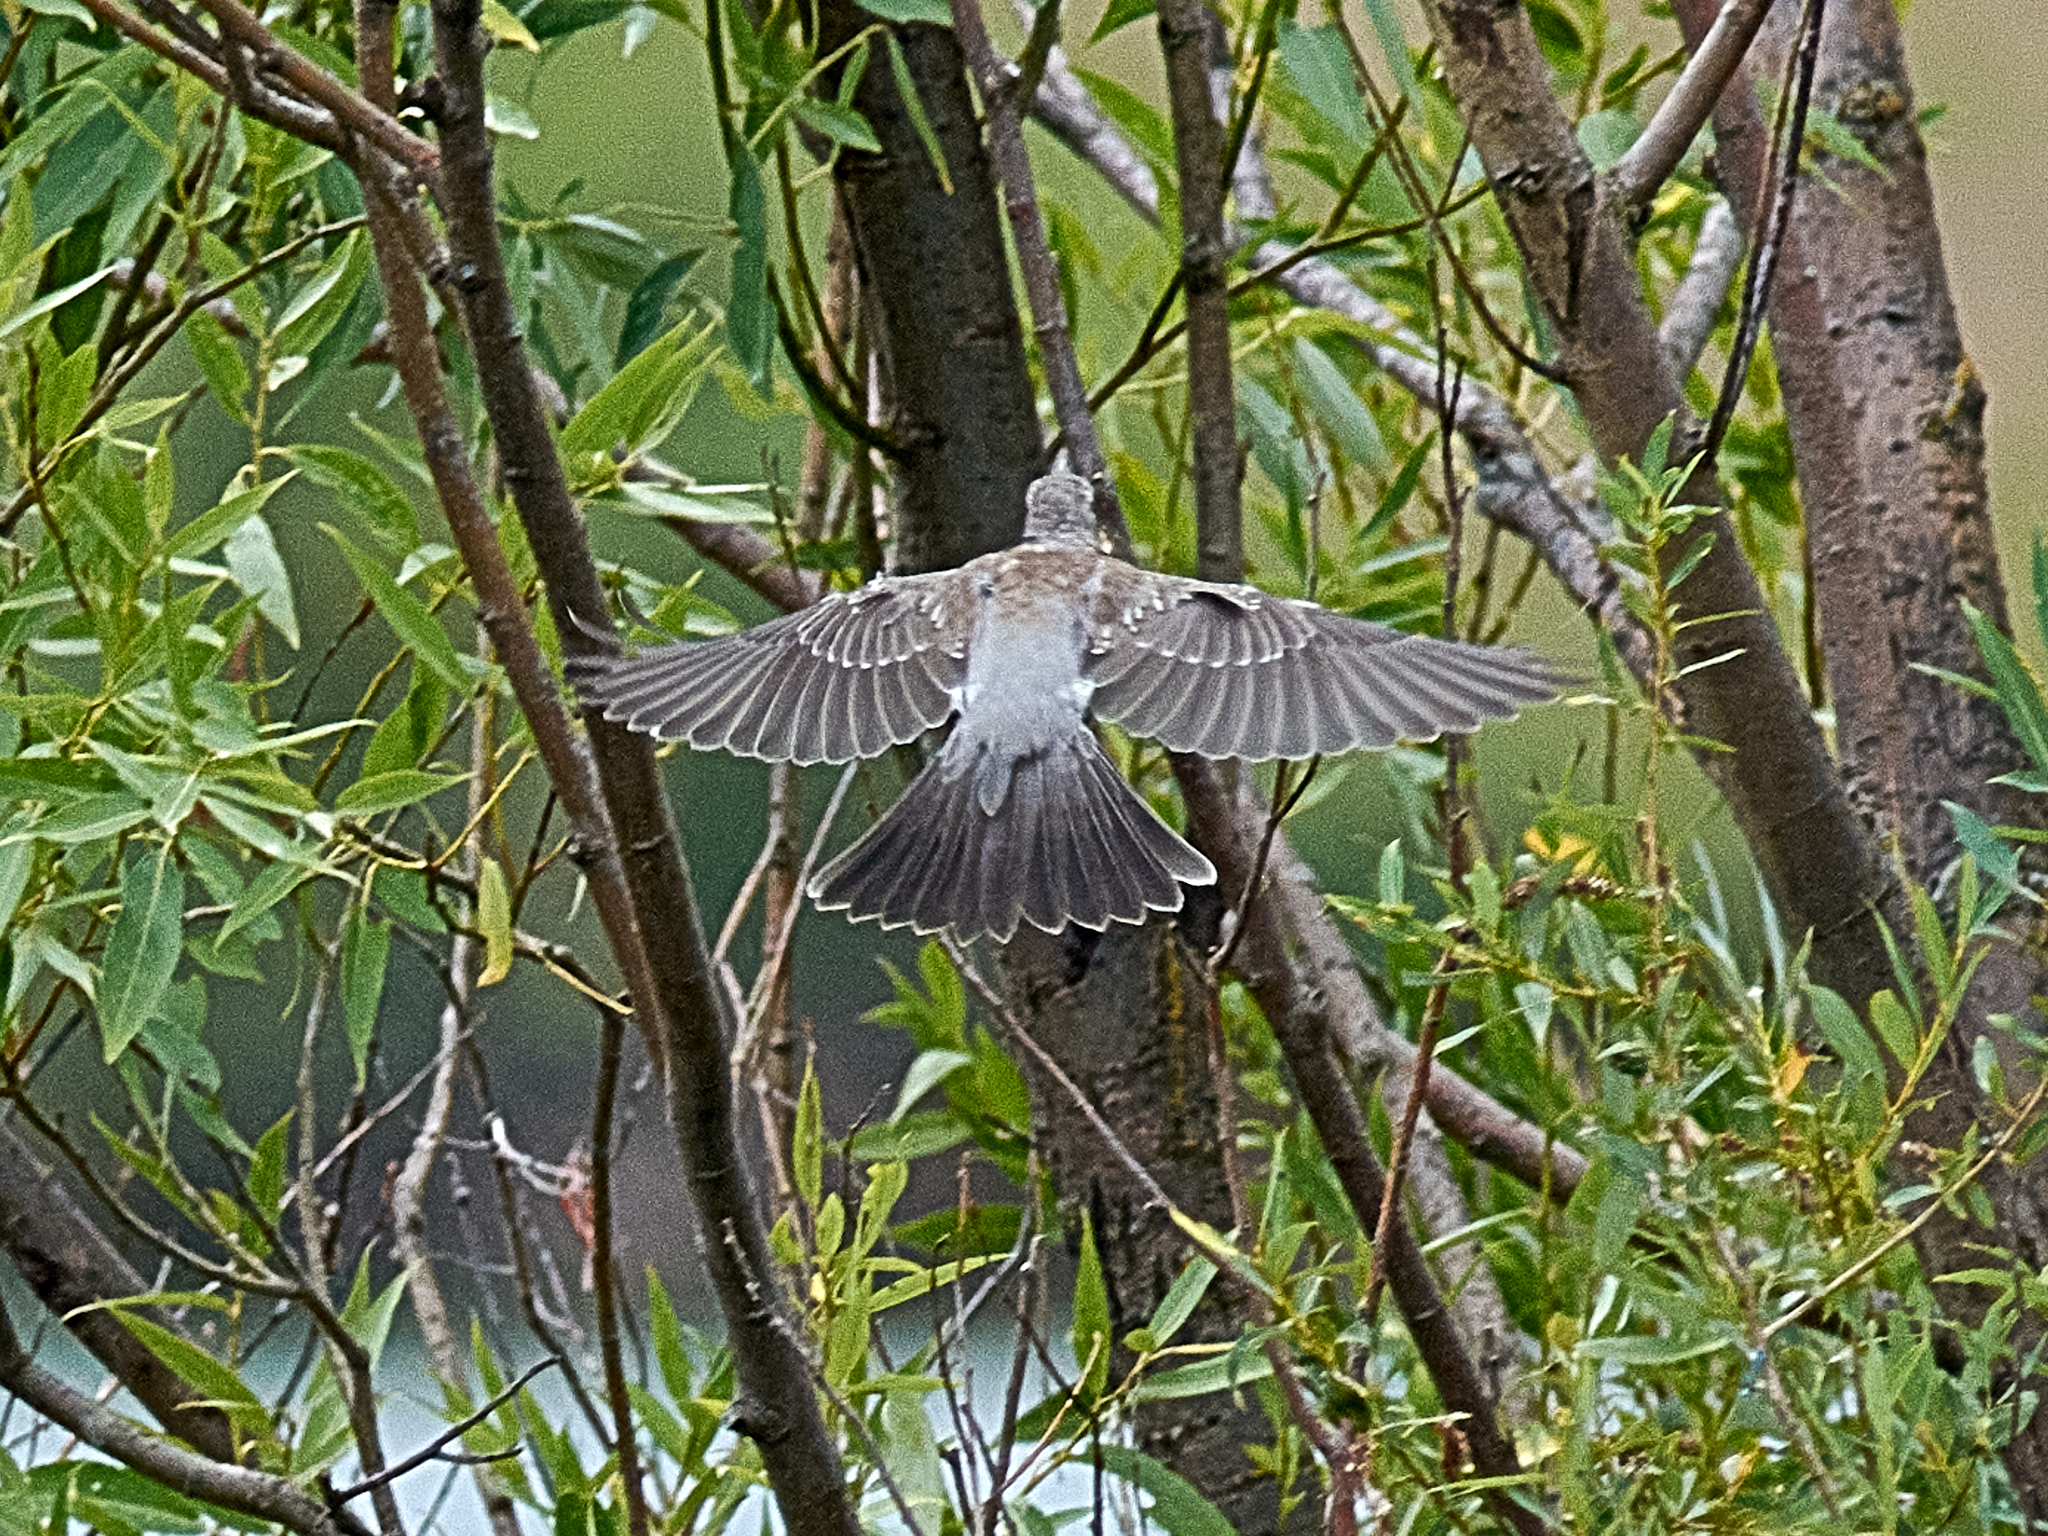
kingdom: Animalia
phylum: Chordata
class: Aves
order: Passeriformes
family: Turdidae
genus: Turdus
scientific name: Turdus pilaris
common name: Fieldfare
